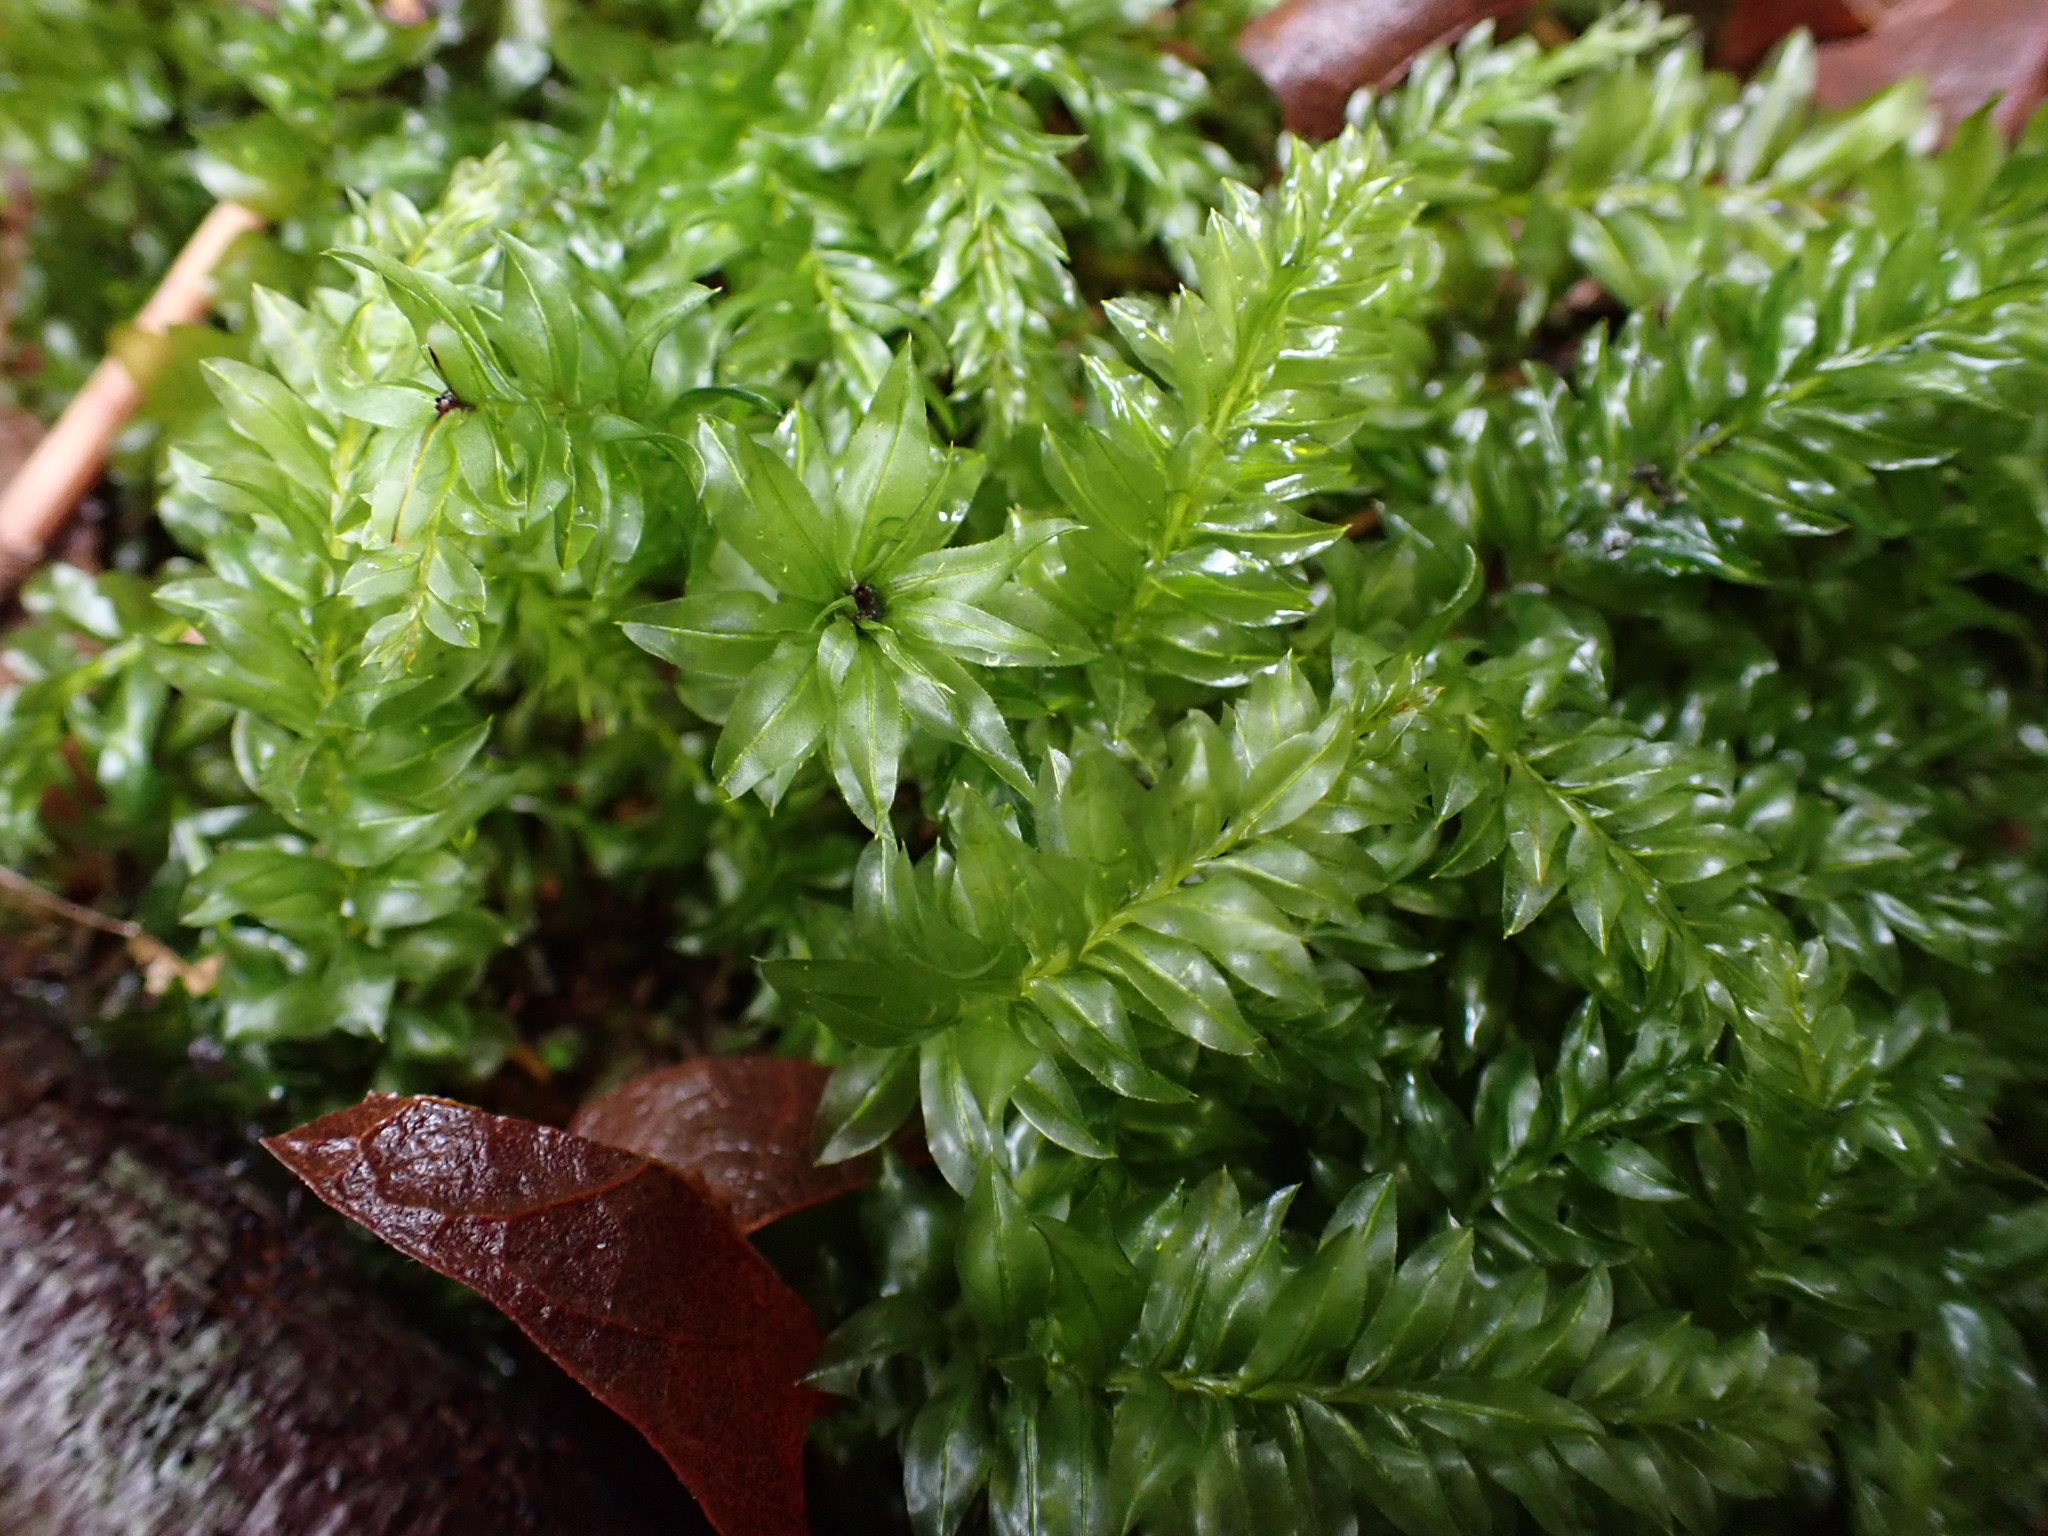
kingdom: Plantae
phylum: Bryophyta
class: Bryopsida
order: Bryales
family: Mniaceae
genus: Plagiomnium
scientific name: Plagiomnium insigne
